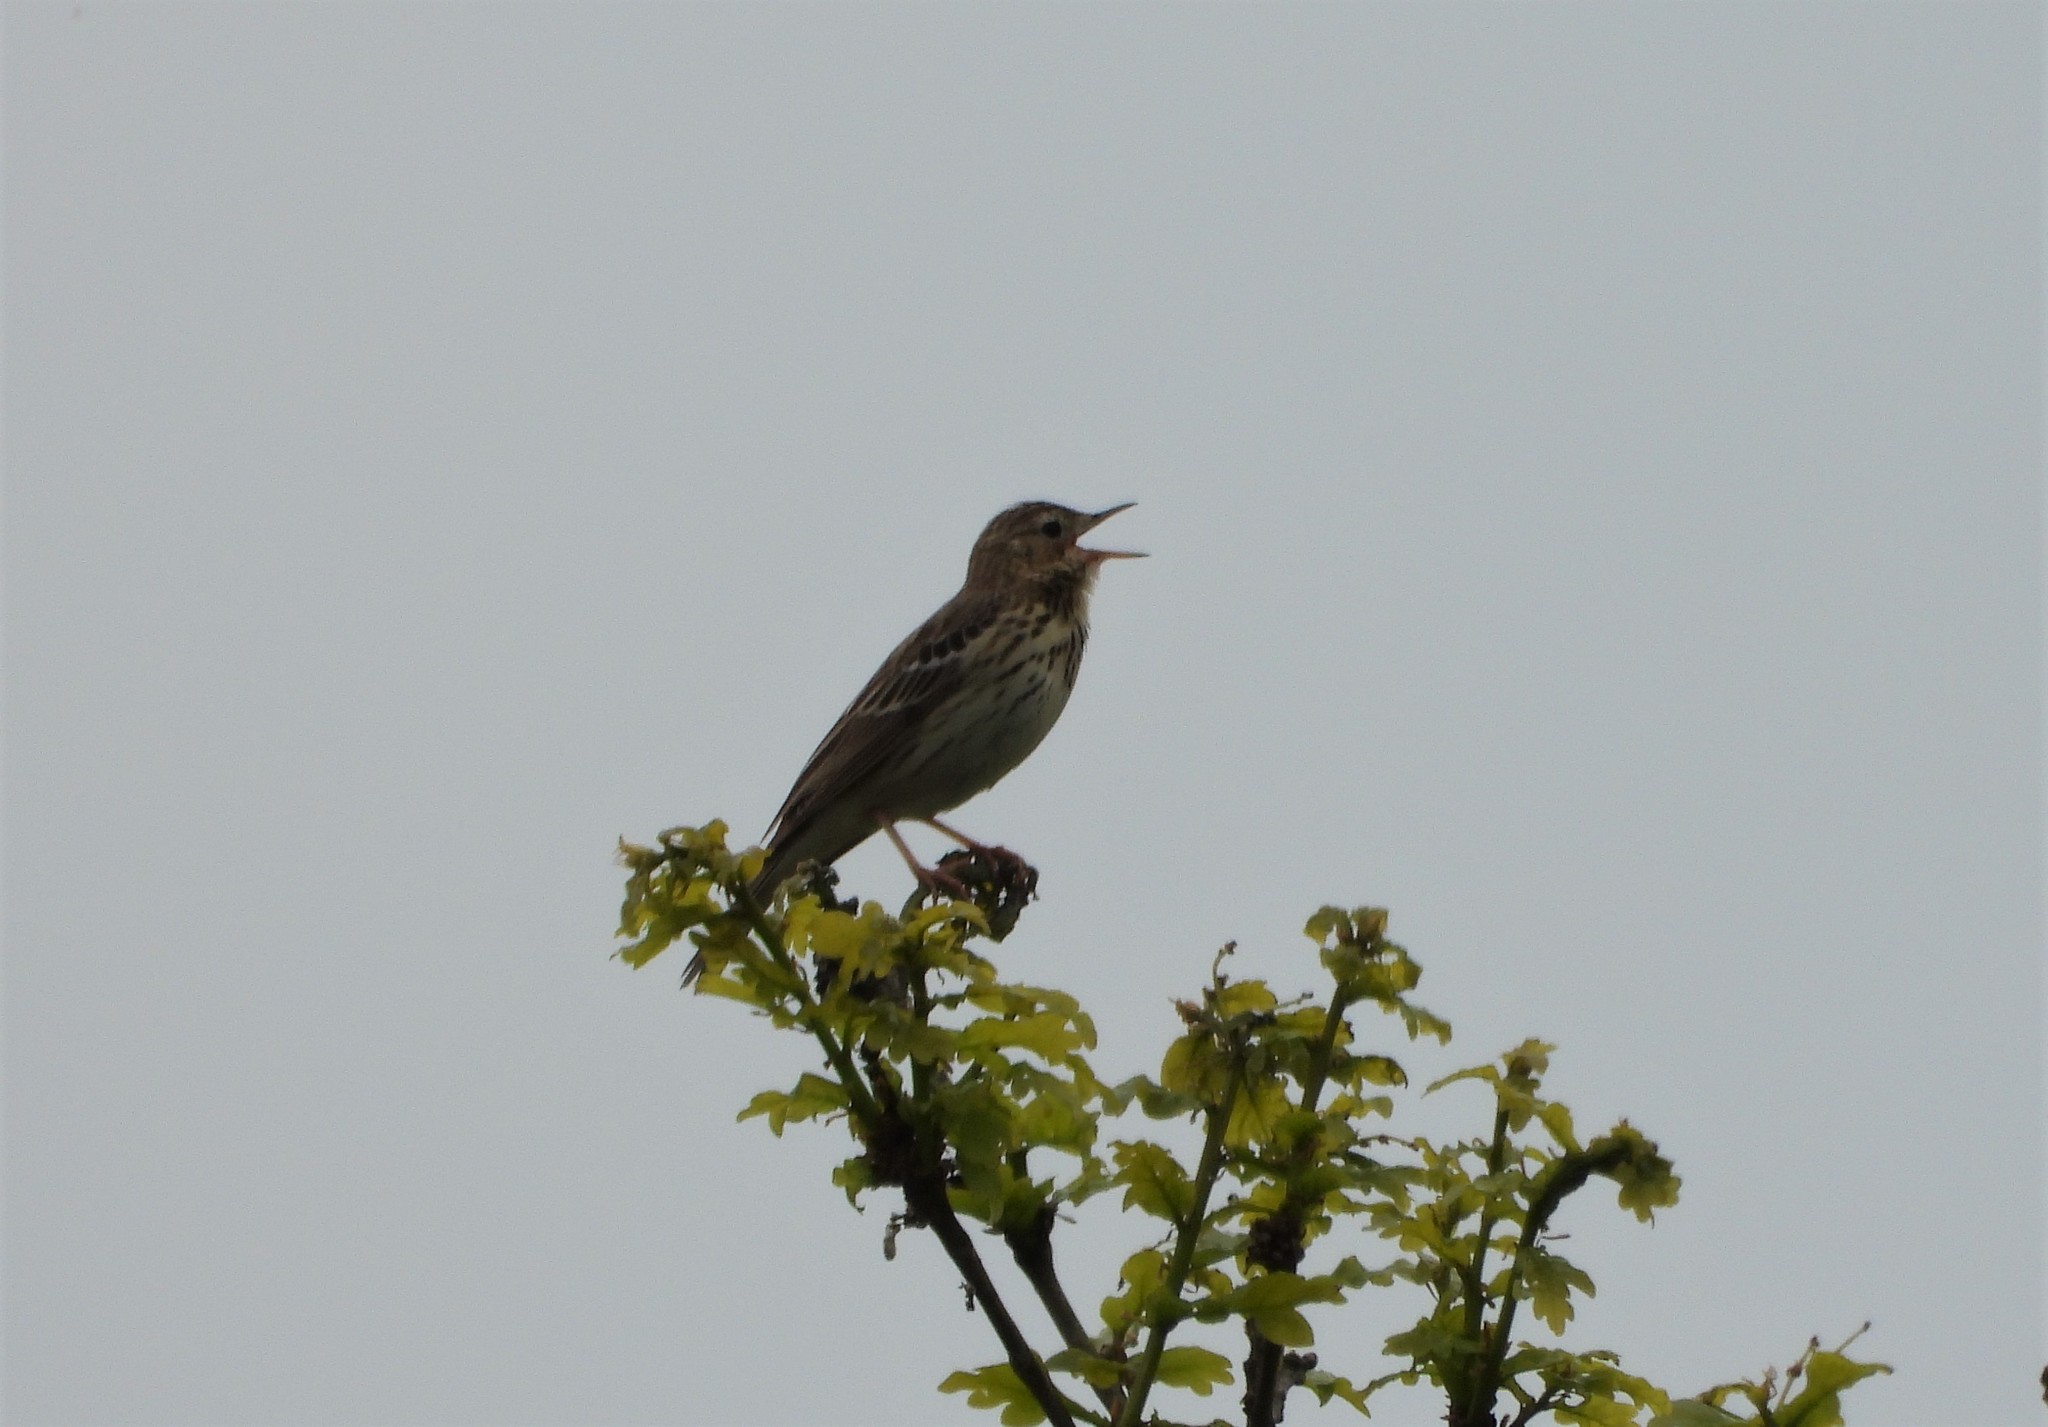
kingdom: Animalia
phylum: Chordata
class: Aves
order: Passeriformes
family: Motacillidae
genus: Anthus
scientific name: Anthus trivialis
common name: Tree pipit
